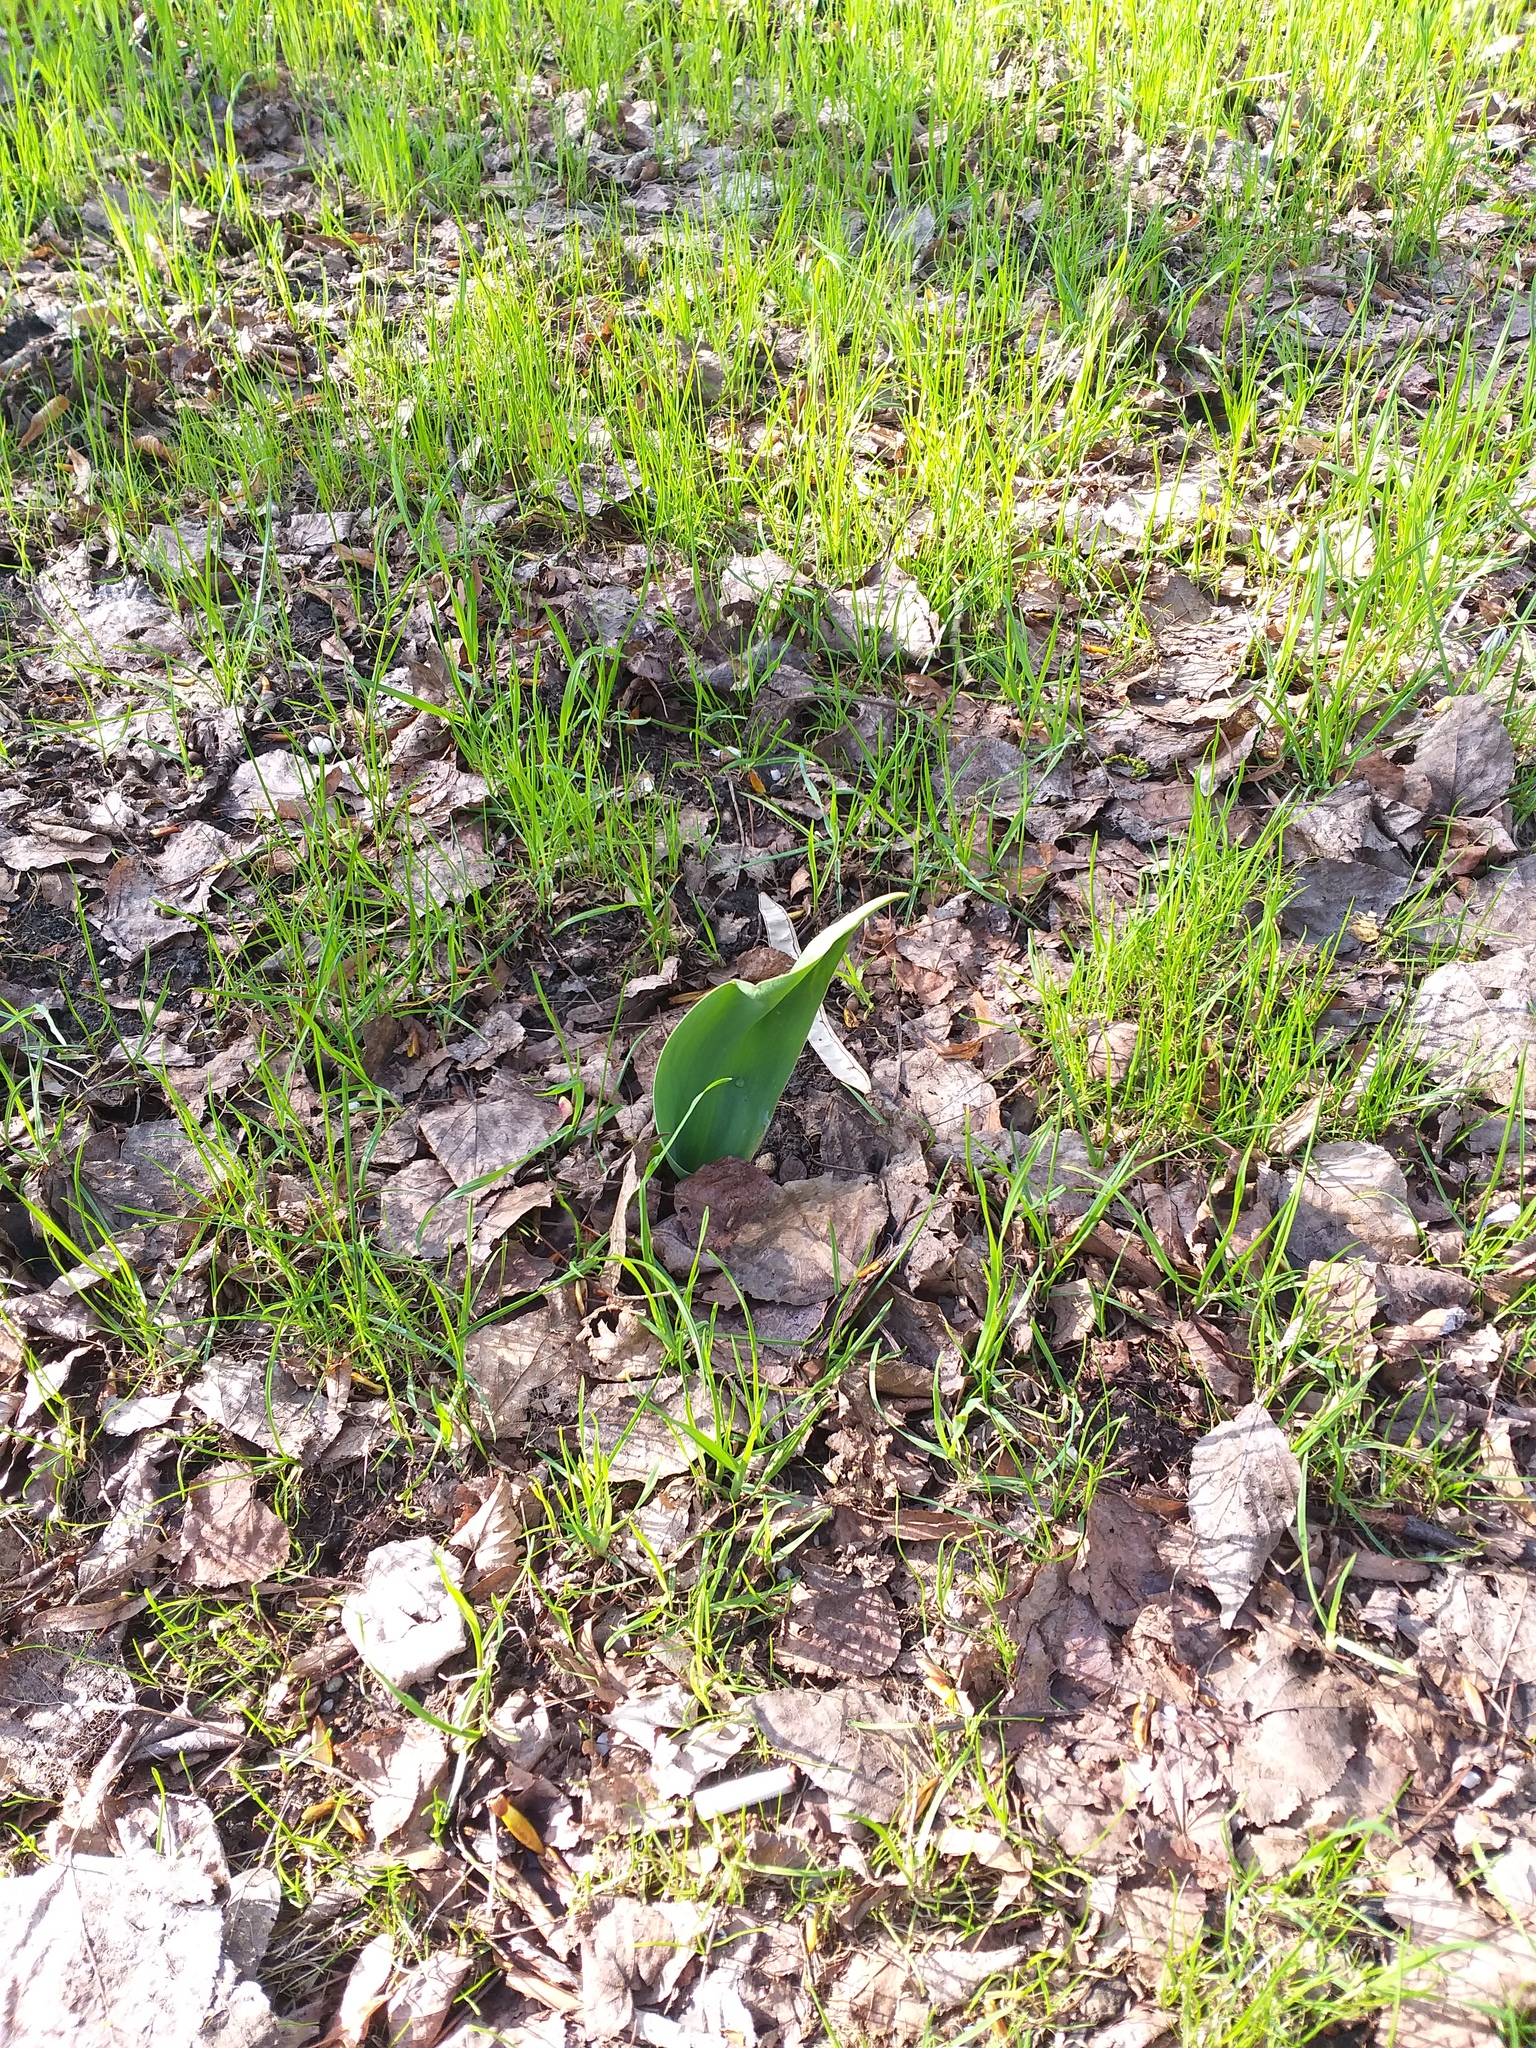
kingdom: Plantae
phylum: Tracheophyta
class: Liliopsida
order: Liliales
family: Liliaceae
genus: Tulipa
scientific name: Tulipa gesneriana
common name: Garden tulip
